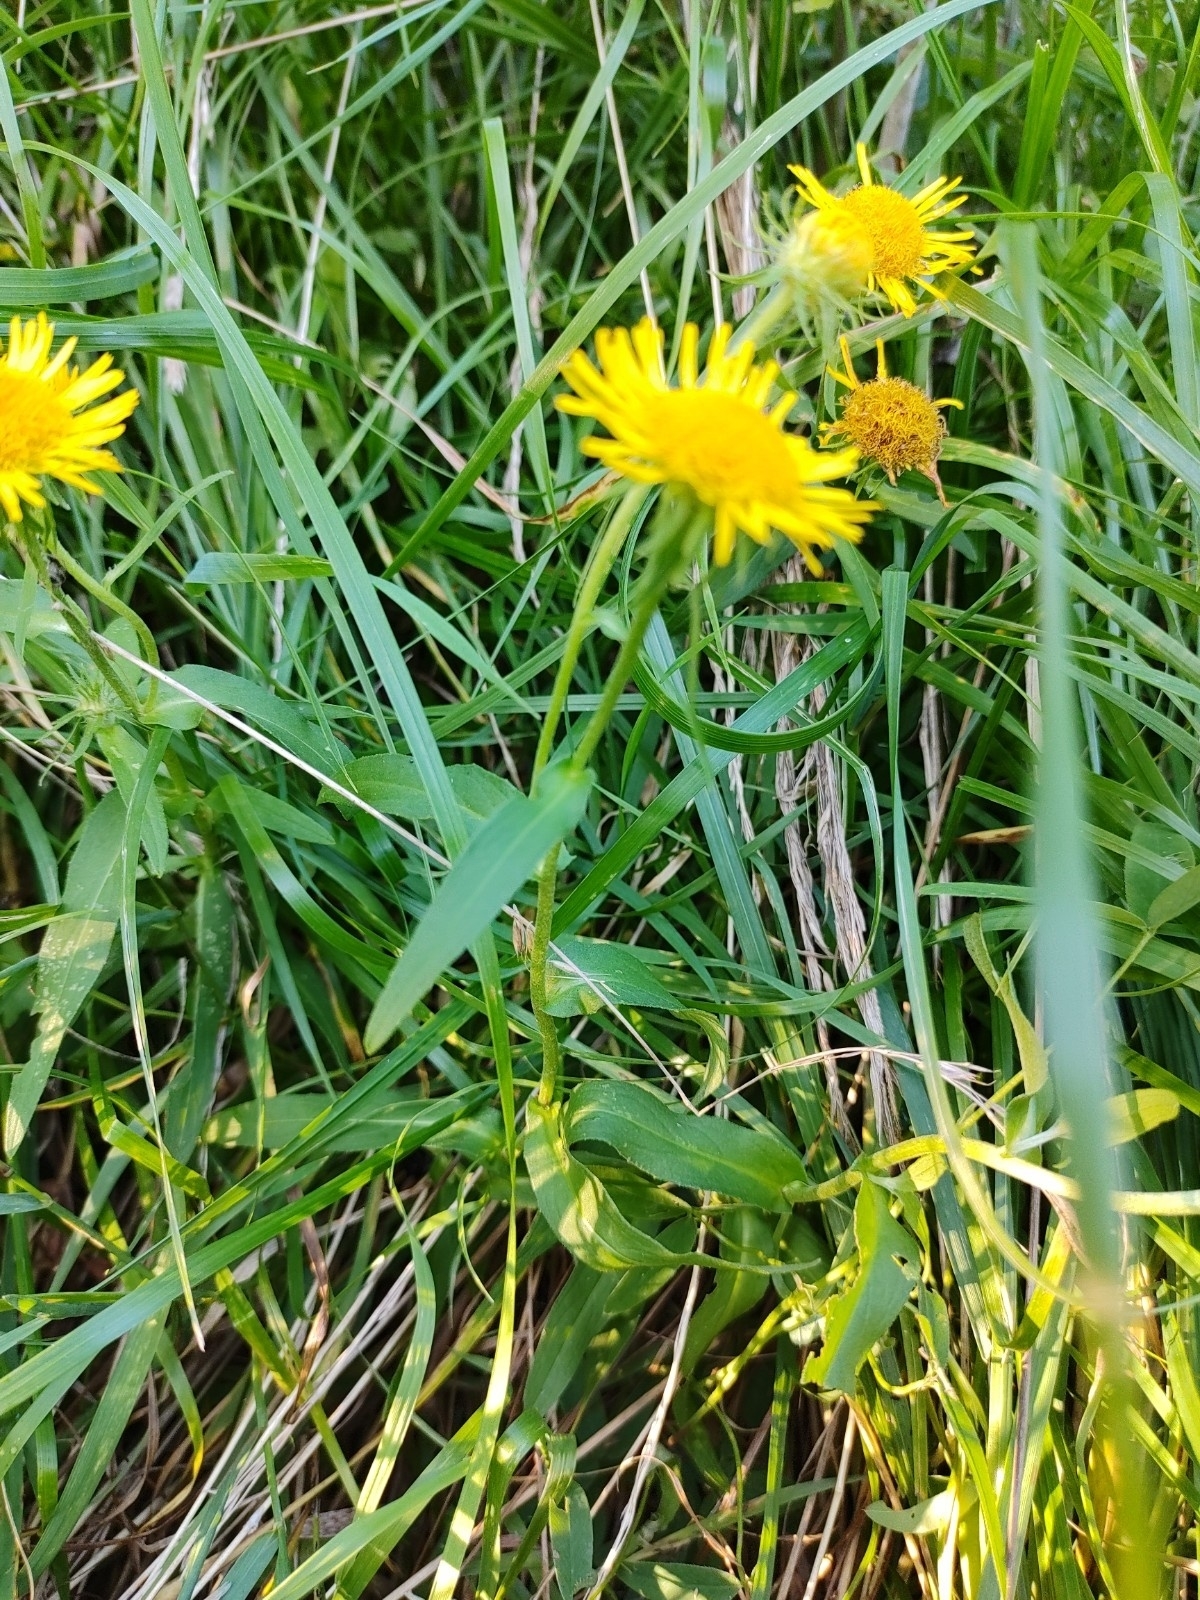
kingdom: Plantae
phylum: Tracheophyta
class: Magnoliopsida
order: Asterales
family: Asteraceae
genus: Pentanema
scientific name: Pentanema britannicum
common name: British elecampane
